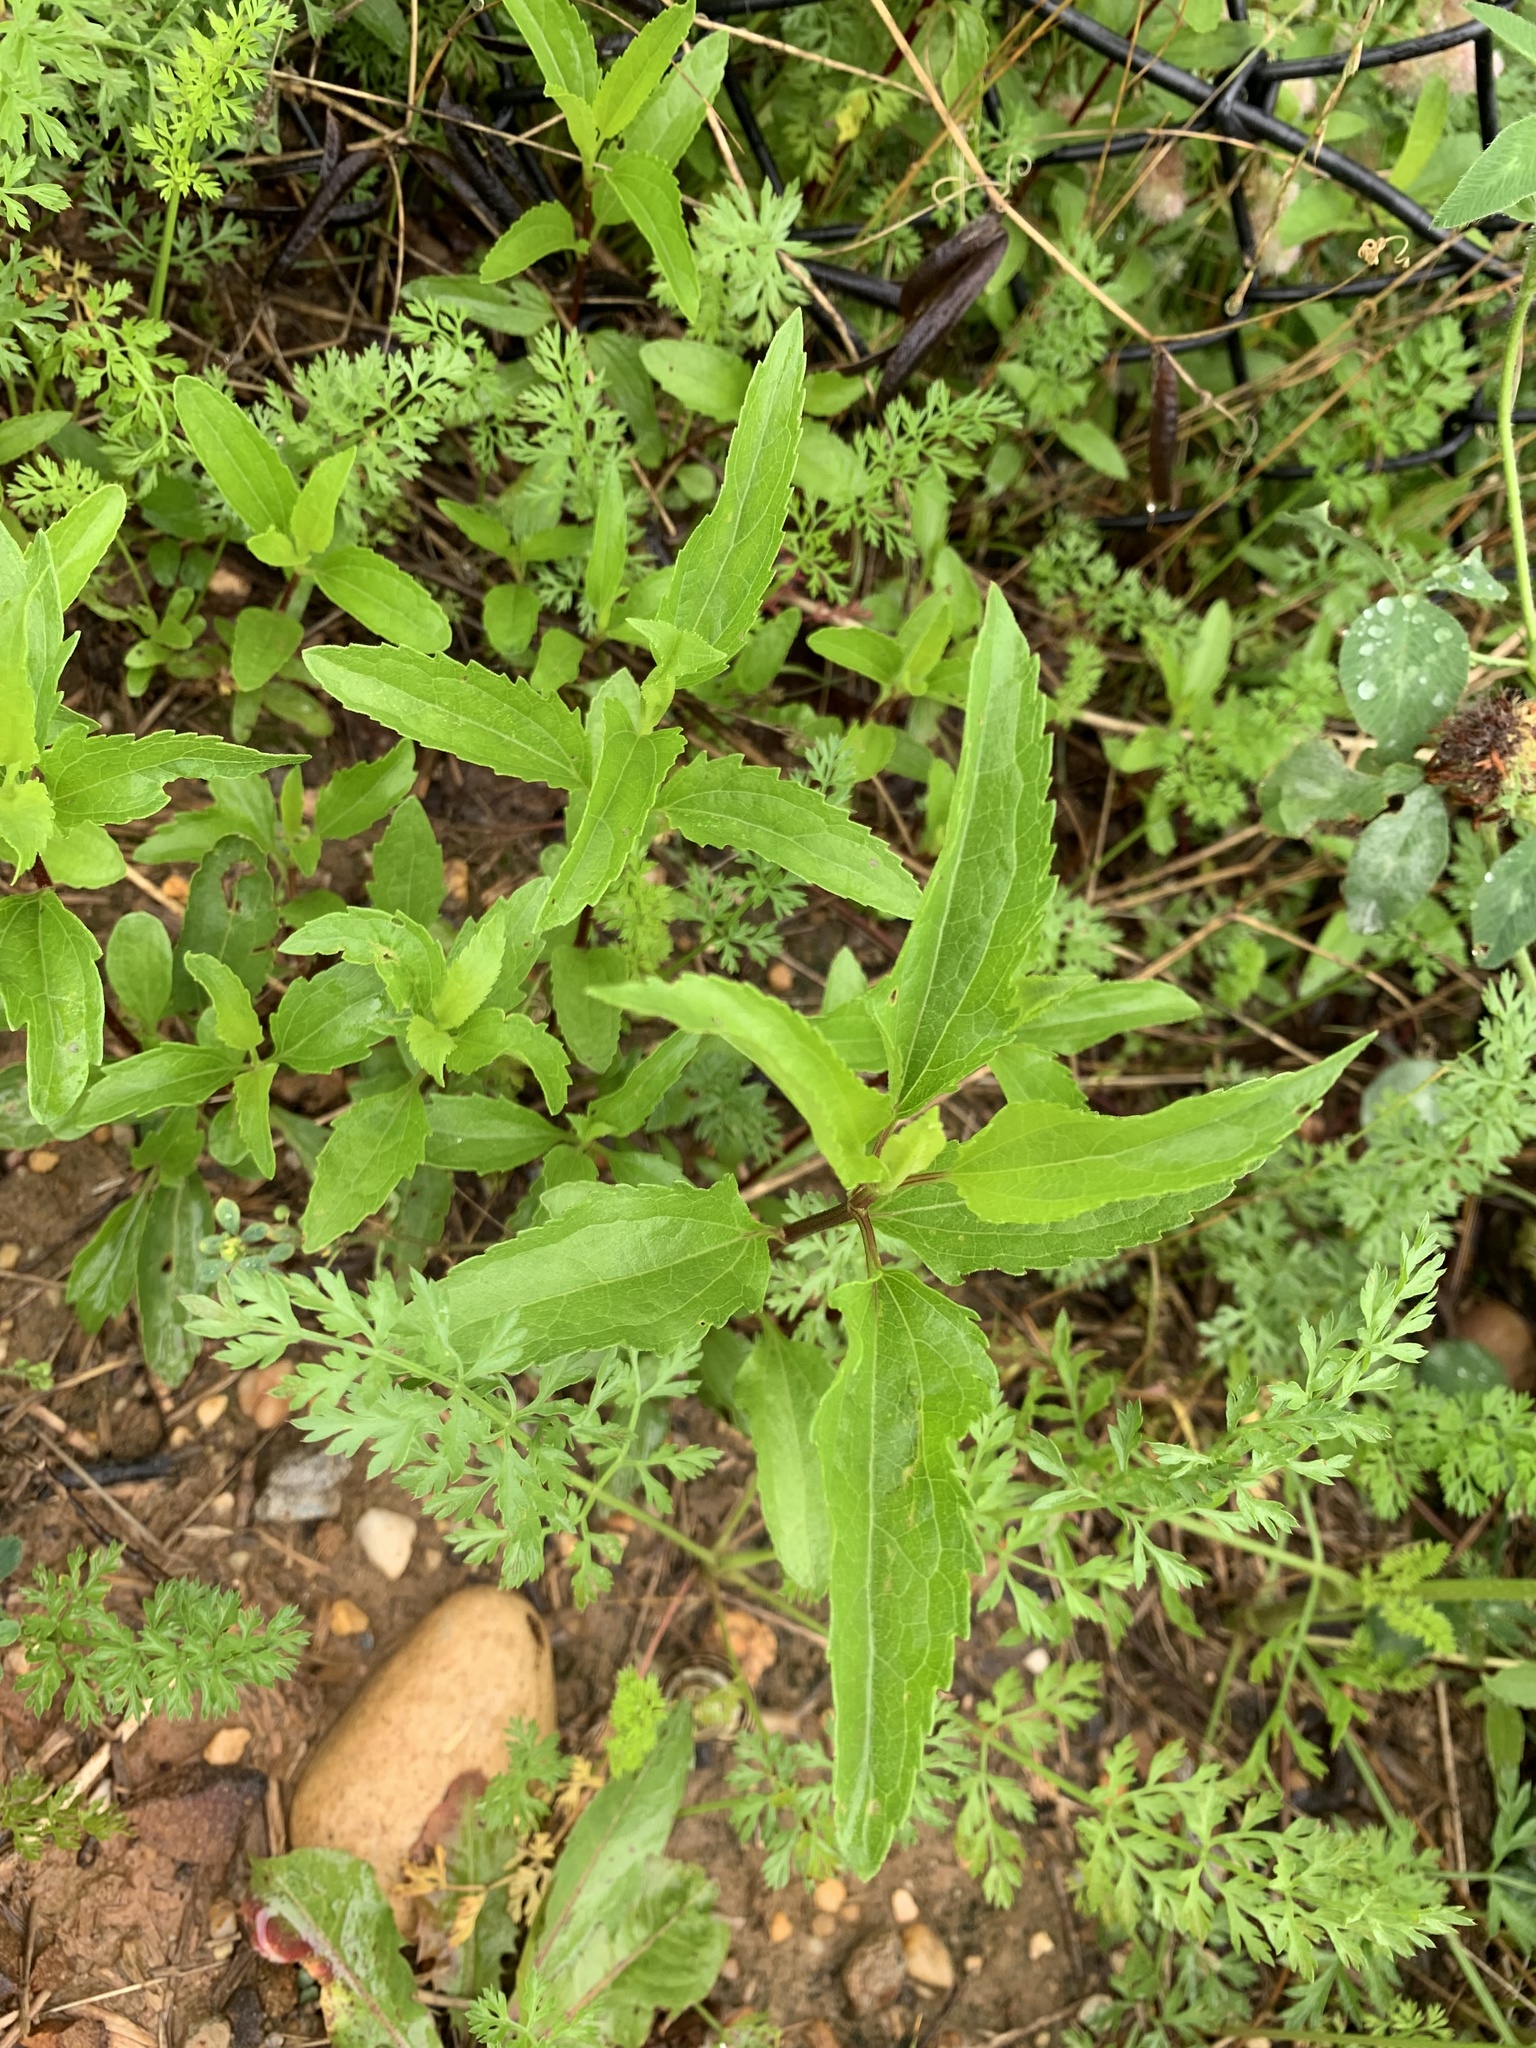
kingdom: Plantae
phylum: Tracheophyta
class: Magnoliopsida
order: Asterales
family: Asteraceae
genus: Eupatorium
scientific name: Eupatorium serotinum
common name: Late boneset
